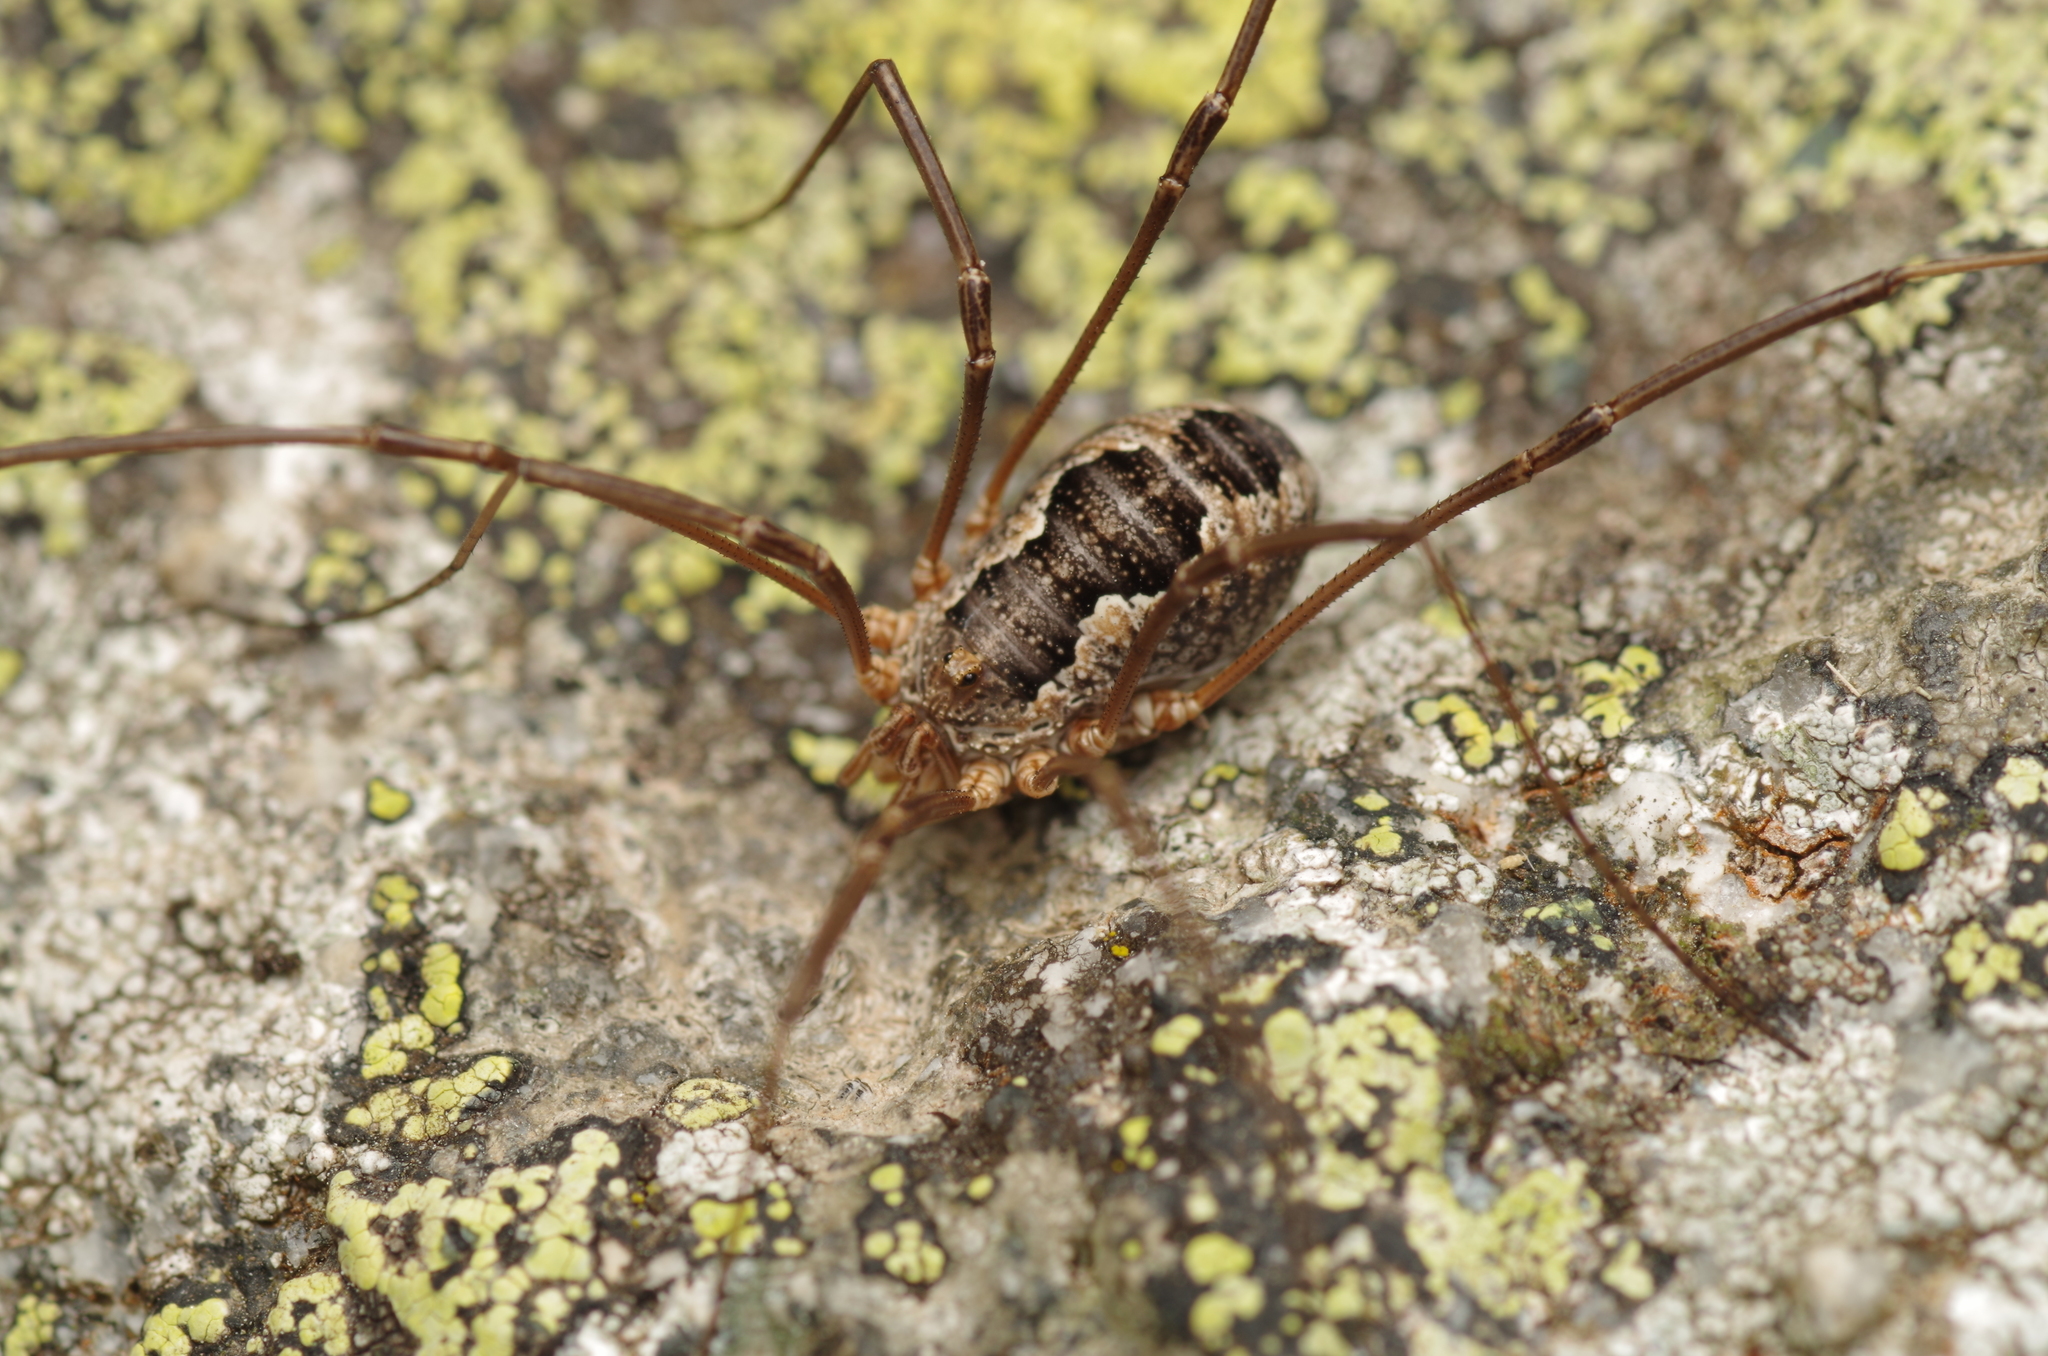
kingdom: Animalia
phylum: Arthropoda
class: Arachnida
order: Opiliones
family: Phalangiidae
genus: Phalangium
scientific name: Phalangium opilio
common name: Daddy longleg
